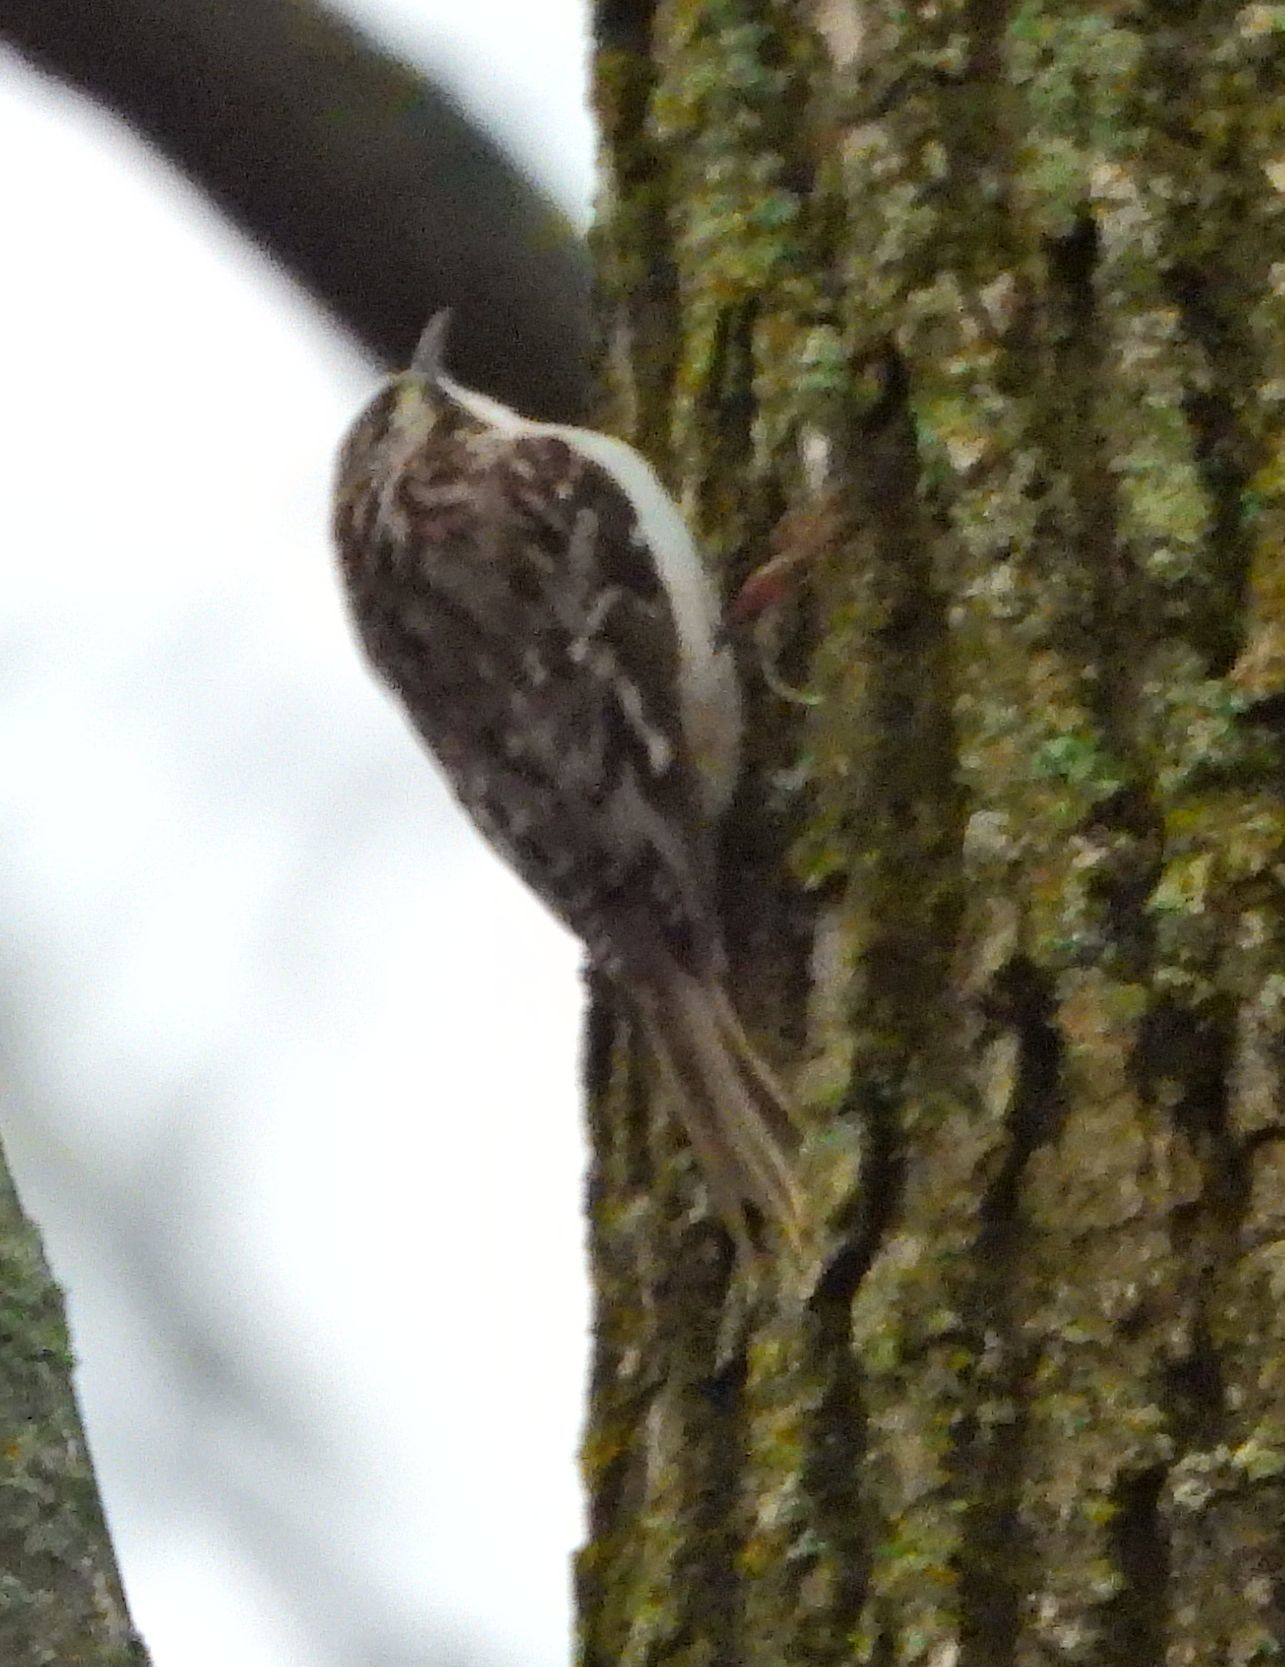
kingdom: Animalia
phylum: Chordata
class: Aves
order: Passeriformes
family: Certhiidae
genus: Certhia
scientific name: Certhia americana
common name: Brown creeper
